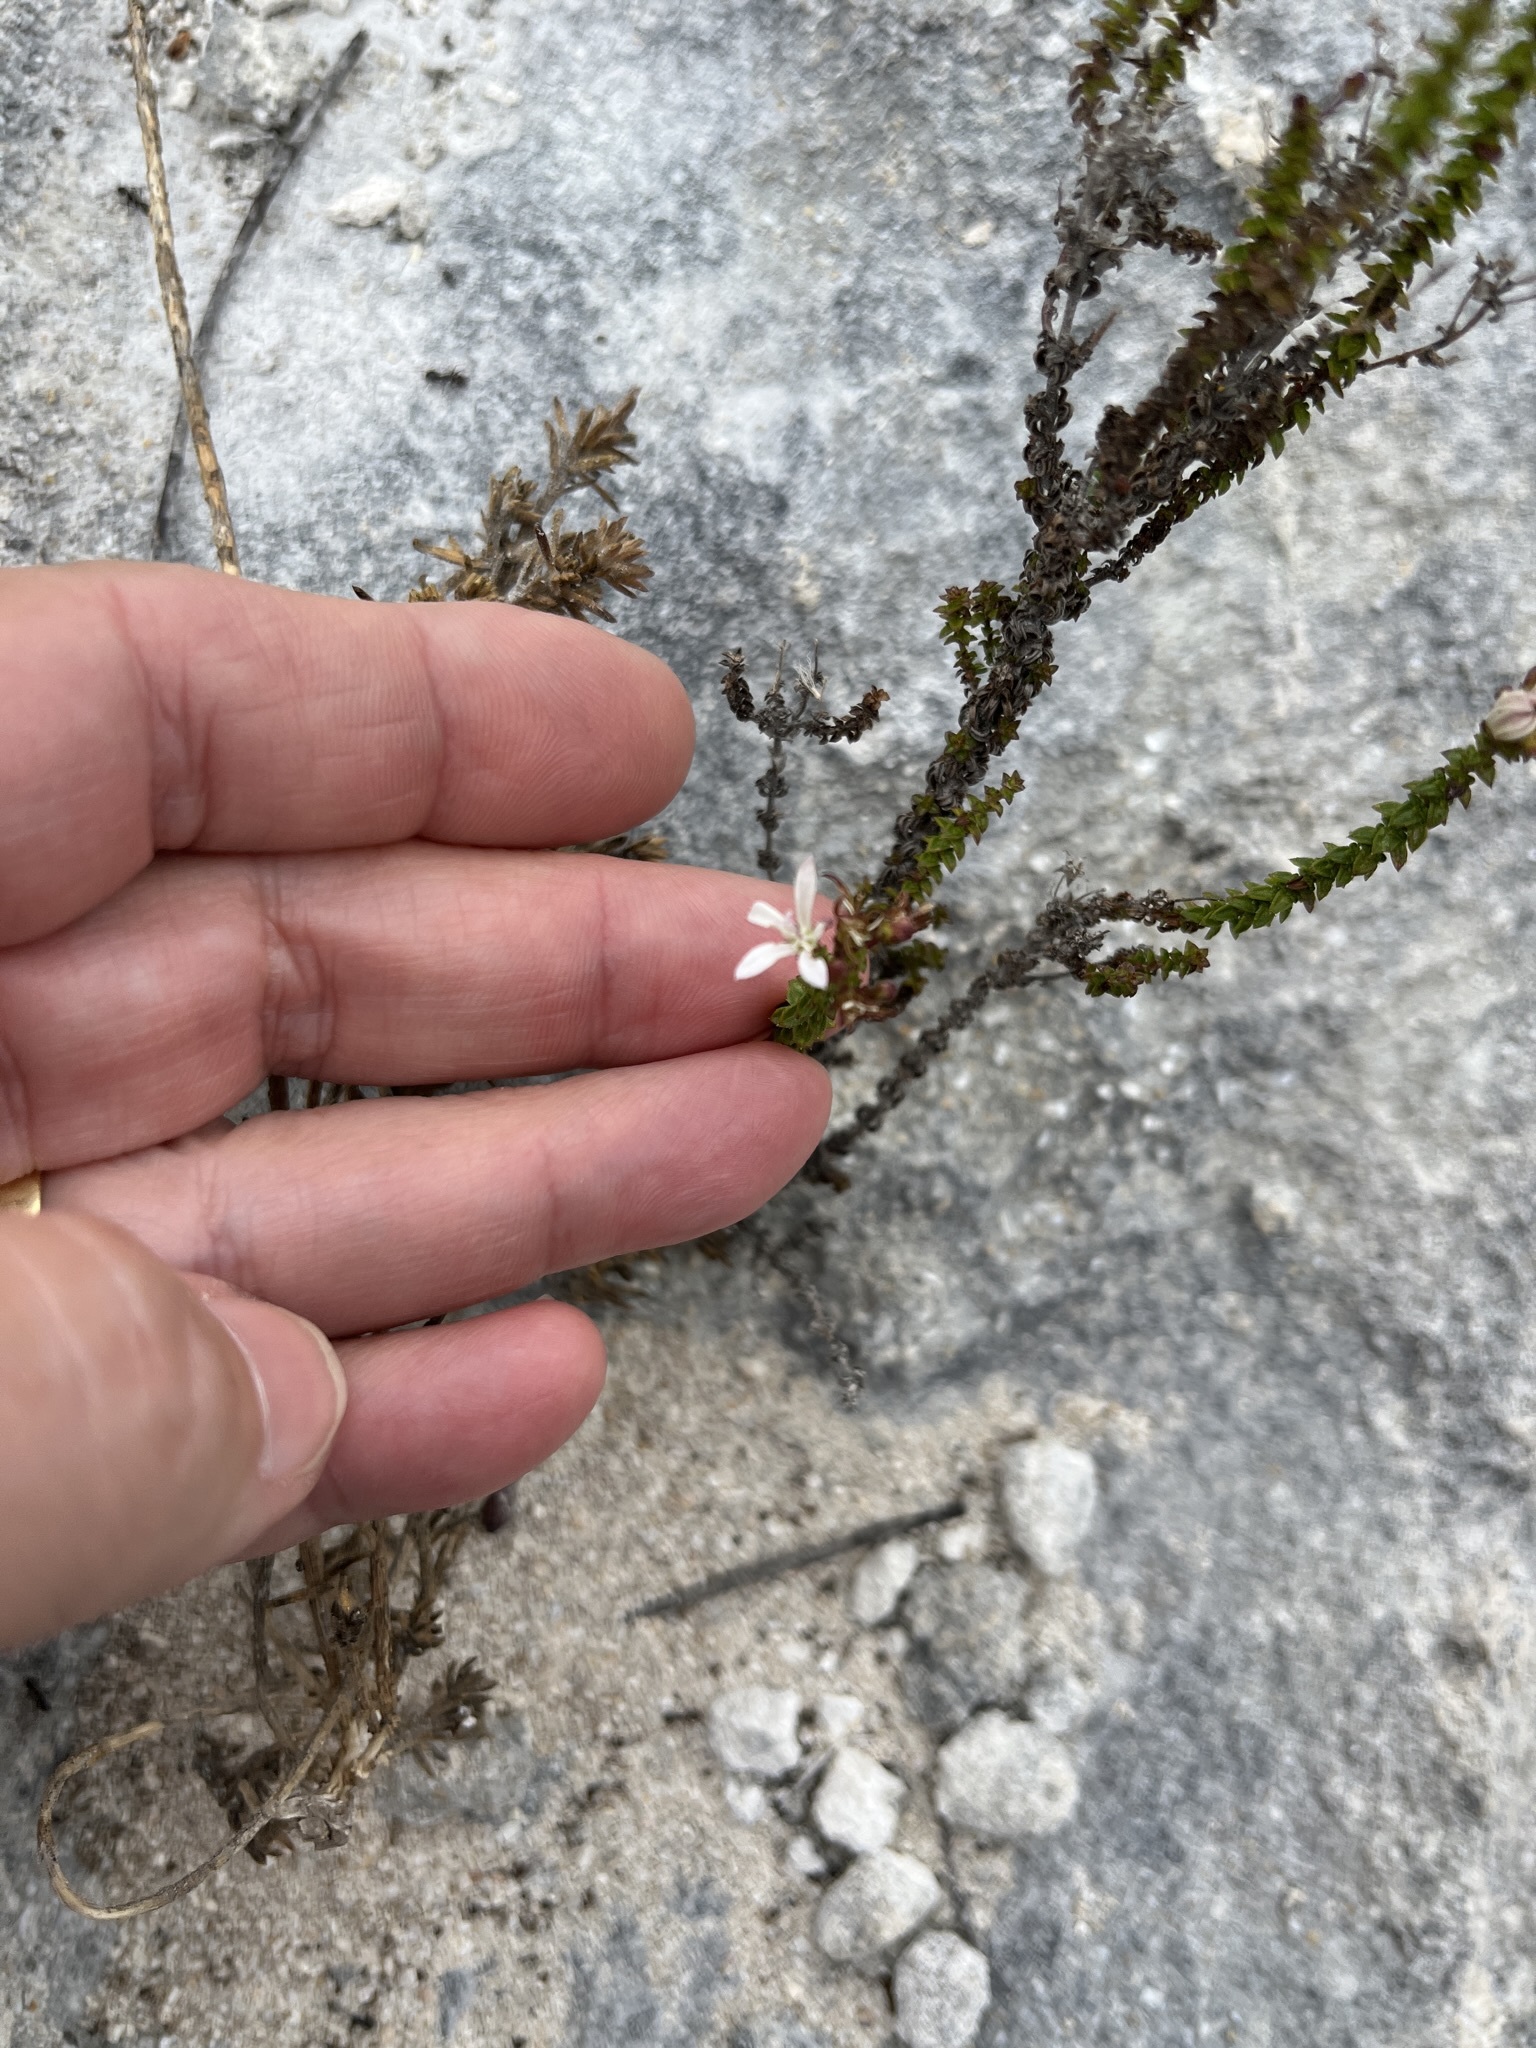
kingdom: Plantae
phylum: Tracheophyta
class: Magnoliopsida
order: Asterales
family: Campanulaceae
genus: Wahlenbergia
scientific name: Wahlenbergia tenella
